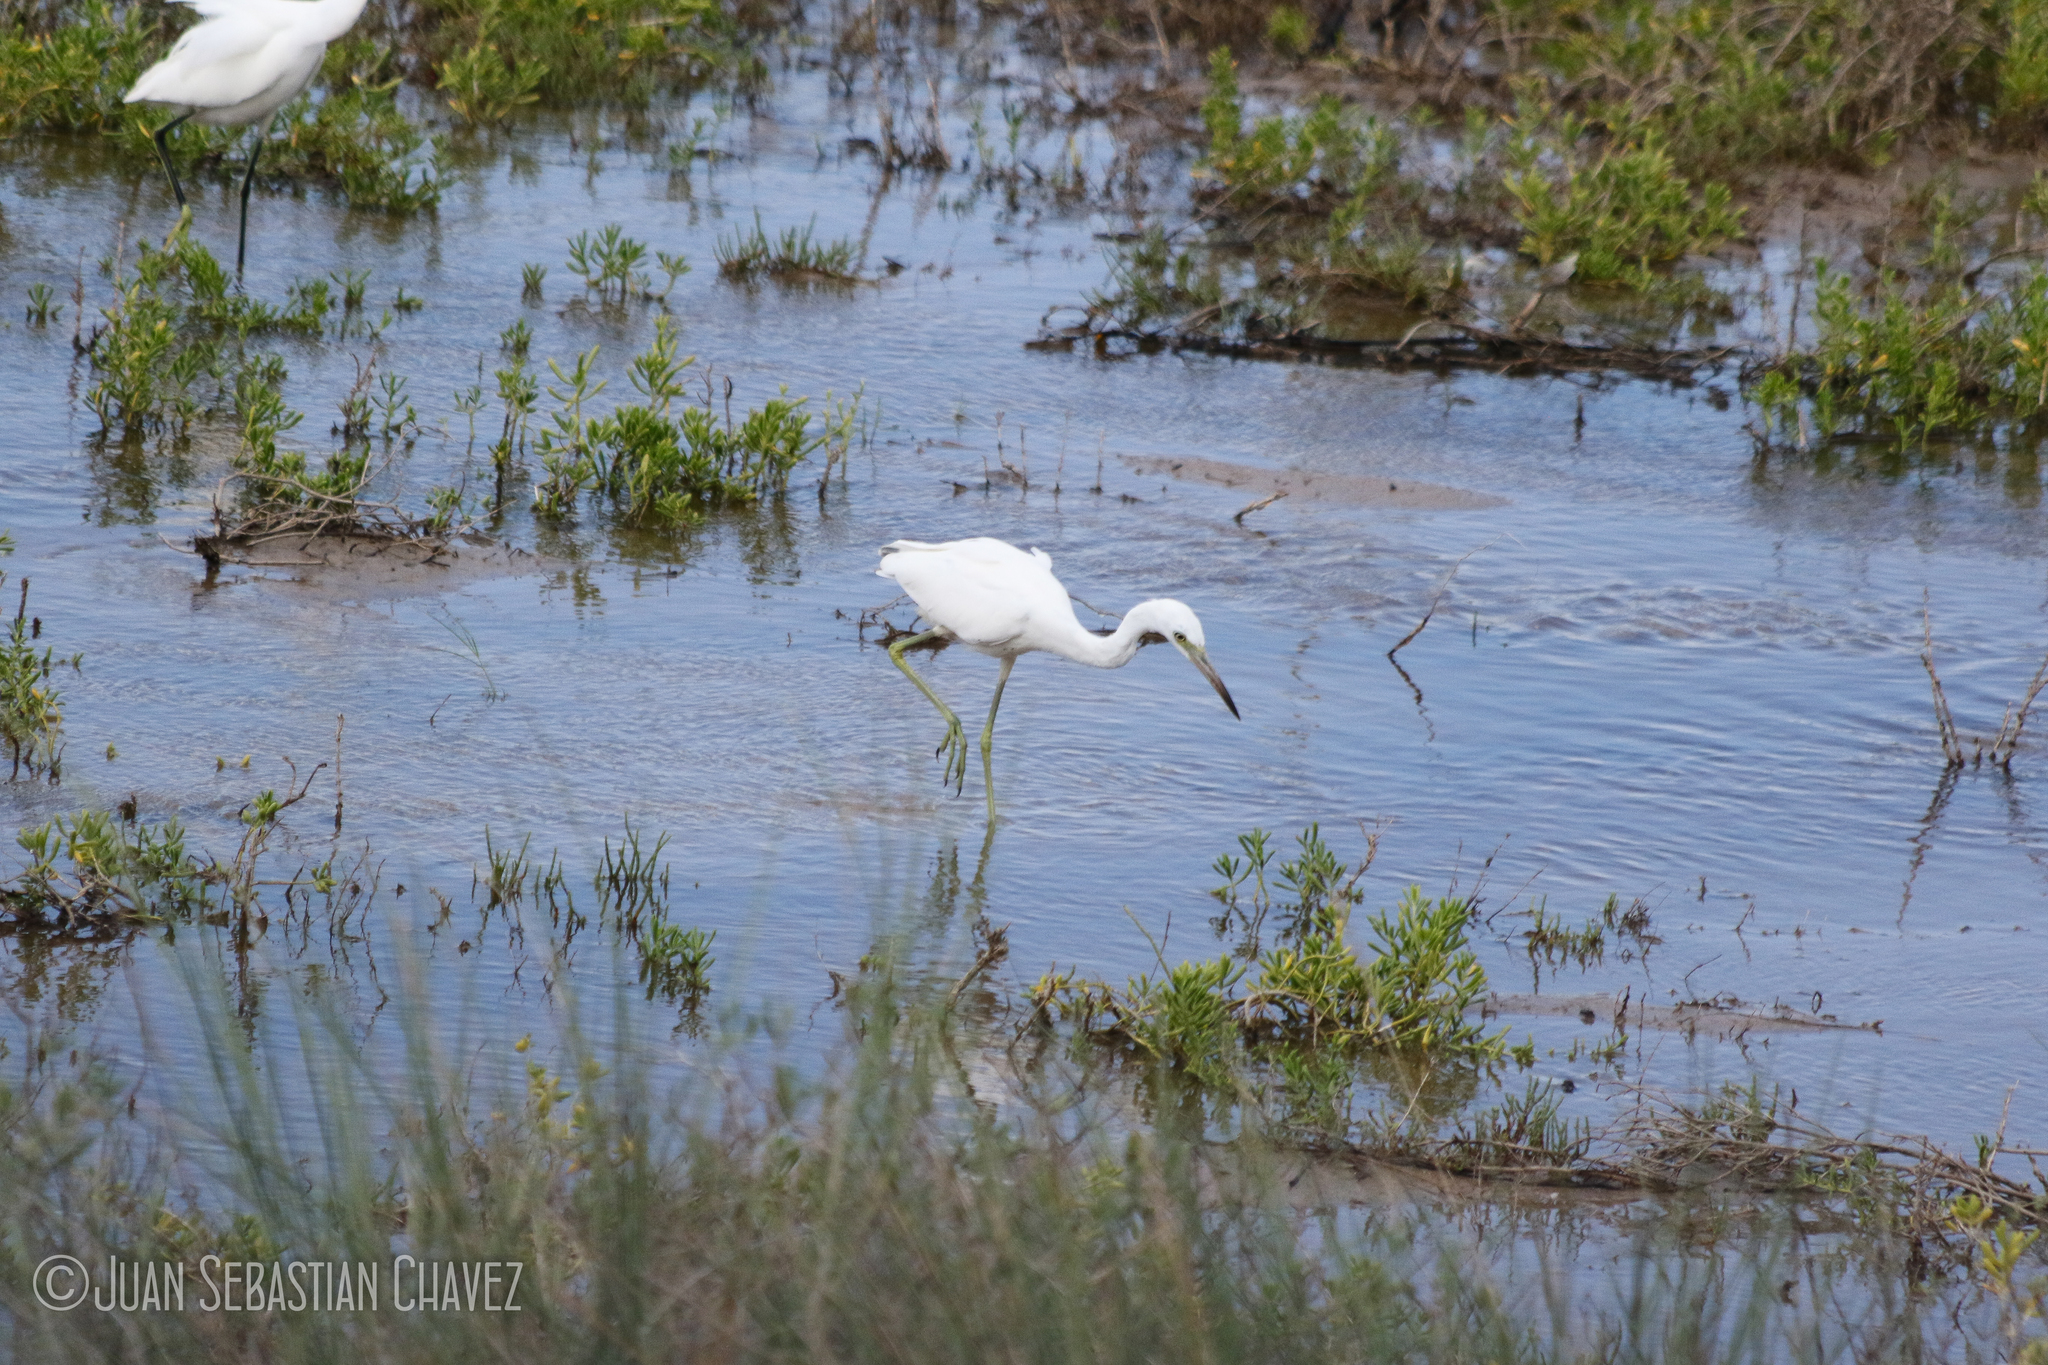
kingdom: Animalia
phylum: Chordata
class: Aves
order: Pelecaniformes
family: Ardeidae
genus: Egretta
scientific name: Egretta caerulea
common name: Little blue heron
